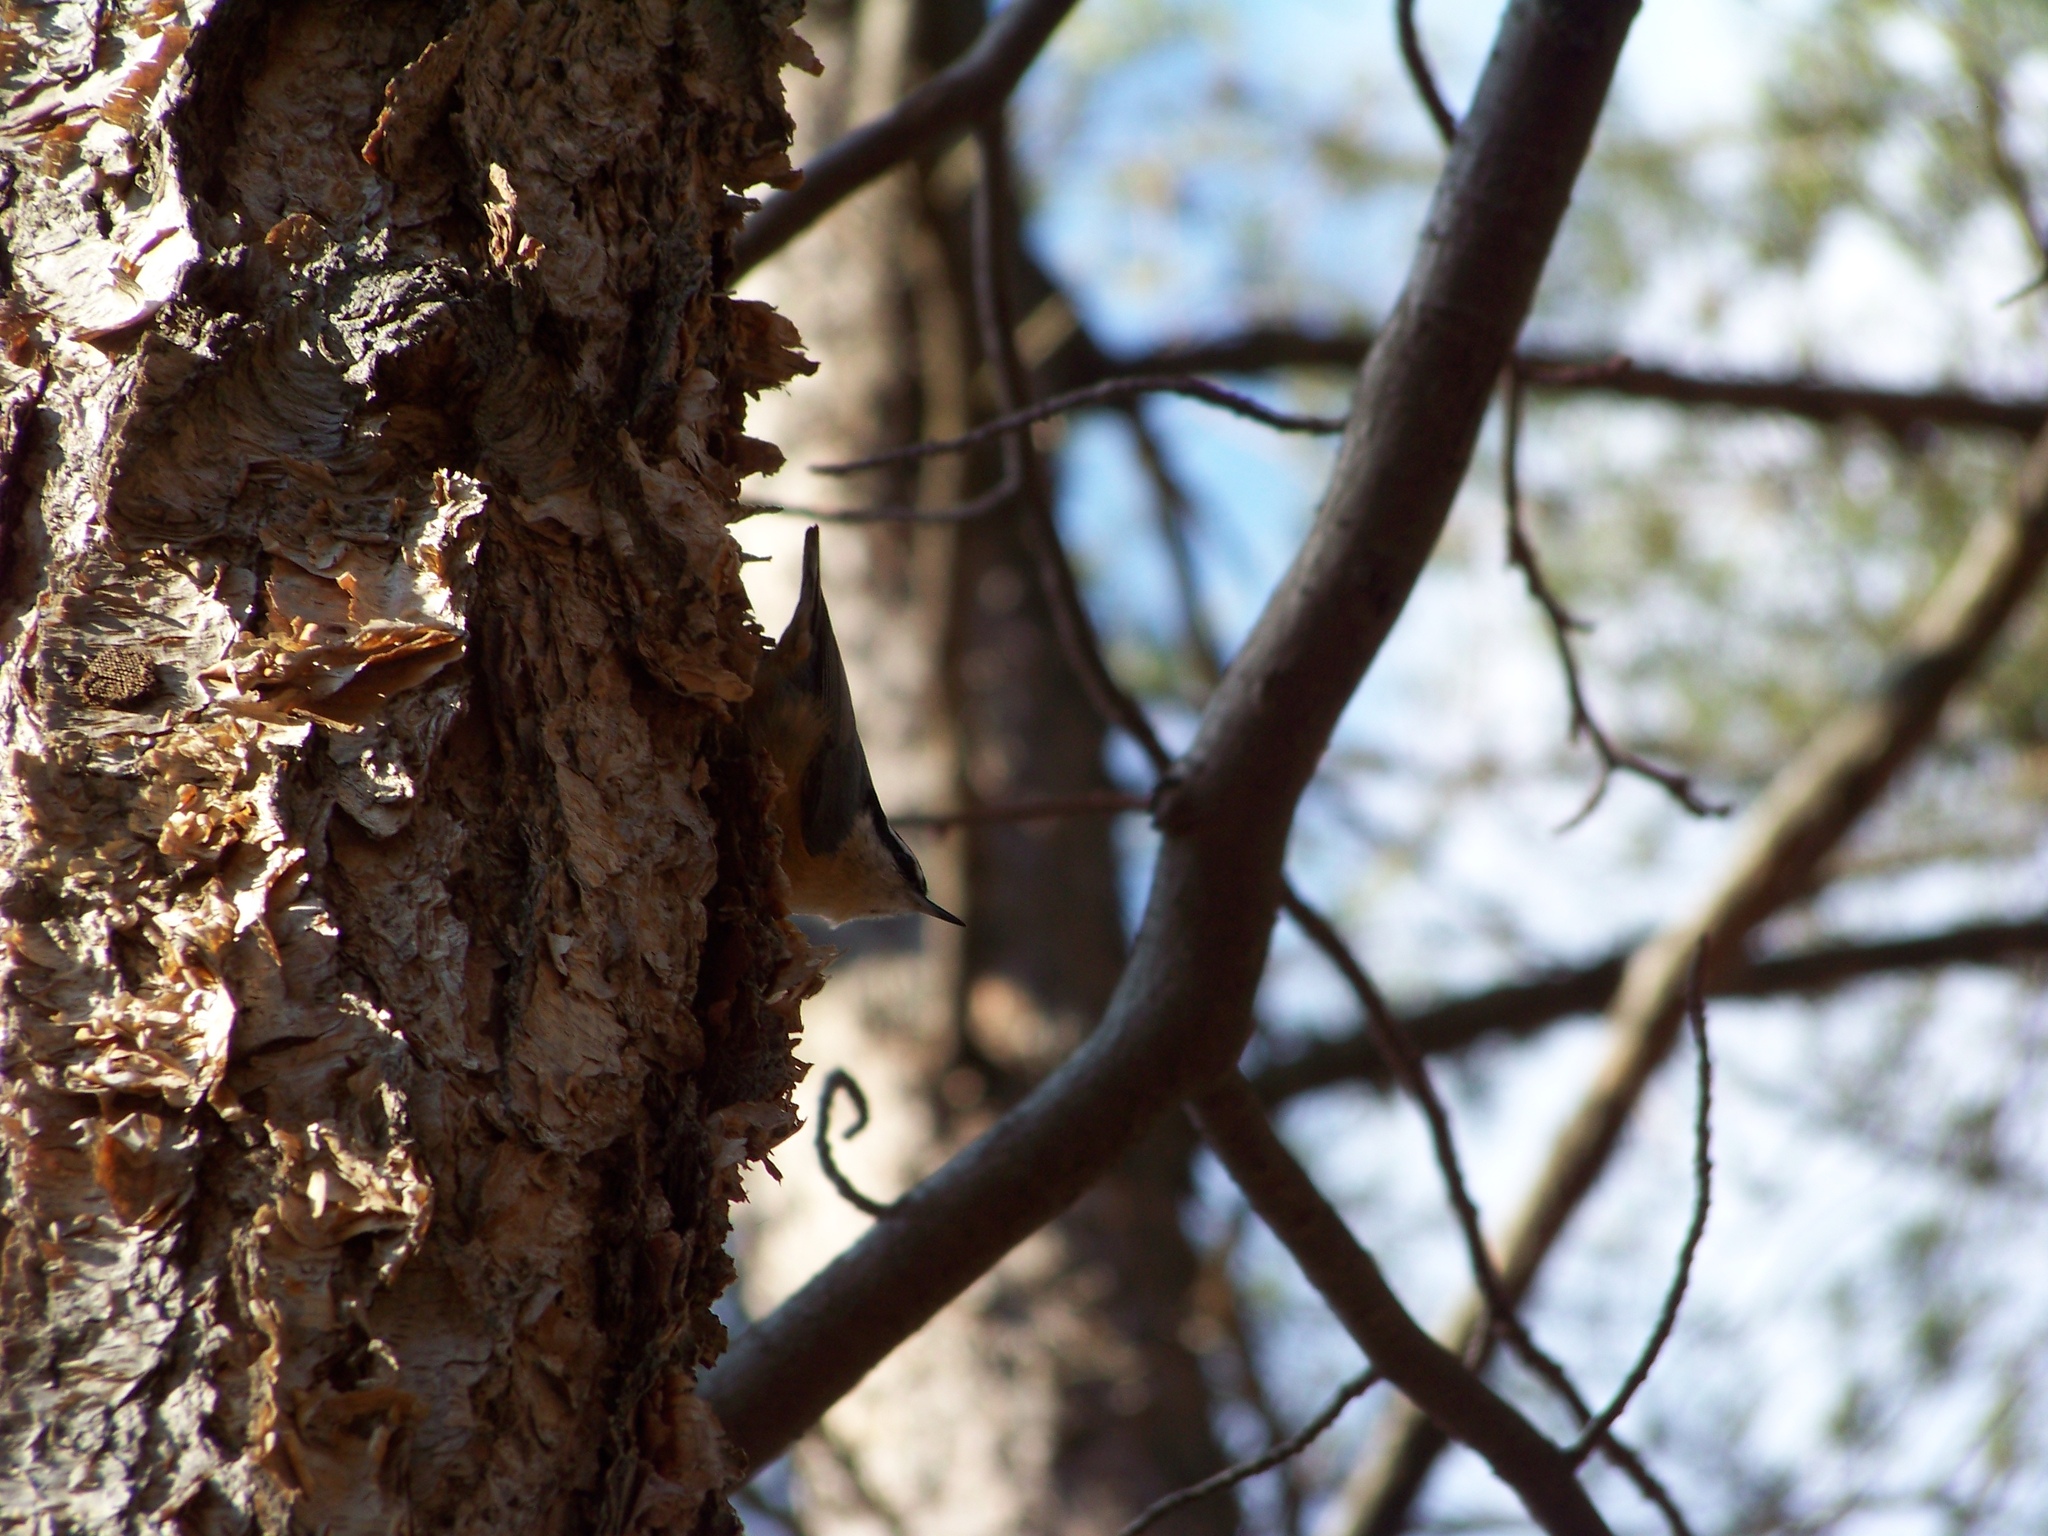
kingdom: Animalia
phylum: Chordata
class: Aves
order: Passeriformes
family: Sittidae
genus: Sitta
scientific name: Sitta canadensis
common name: Red-breasted nuthatch
